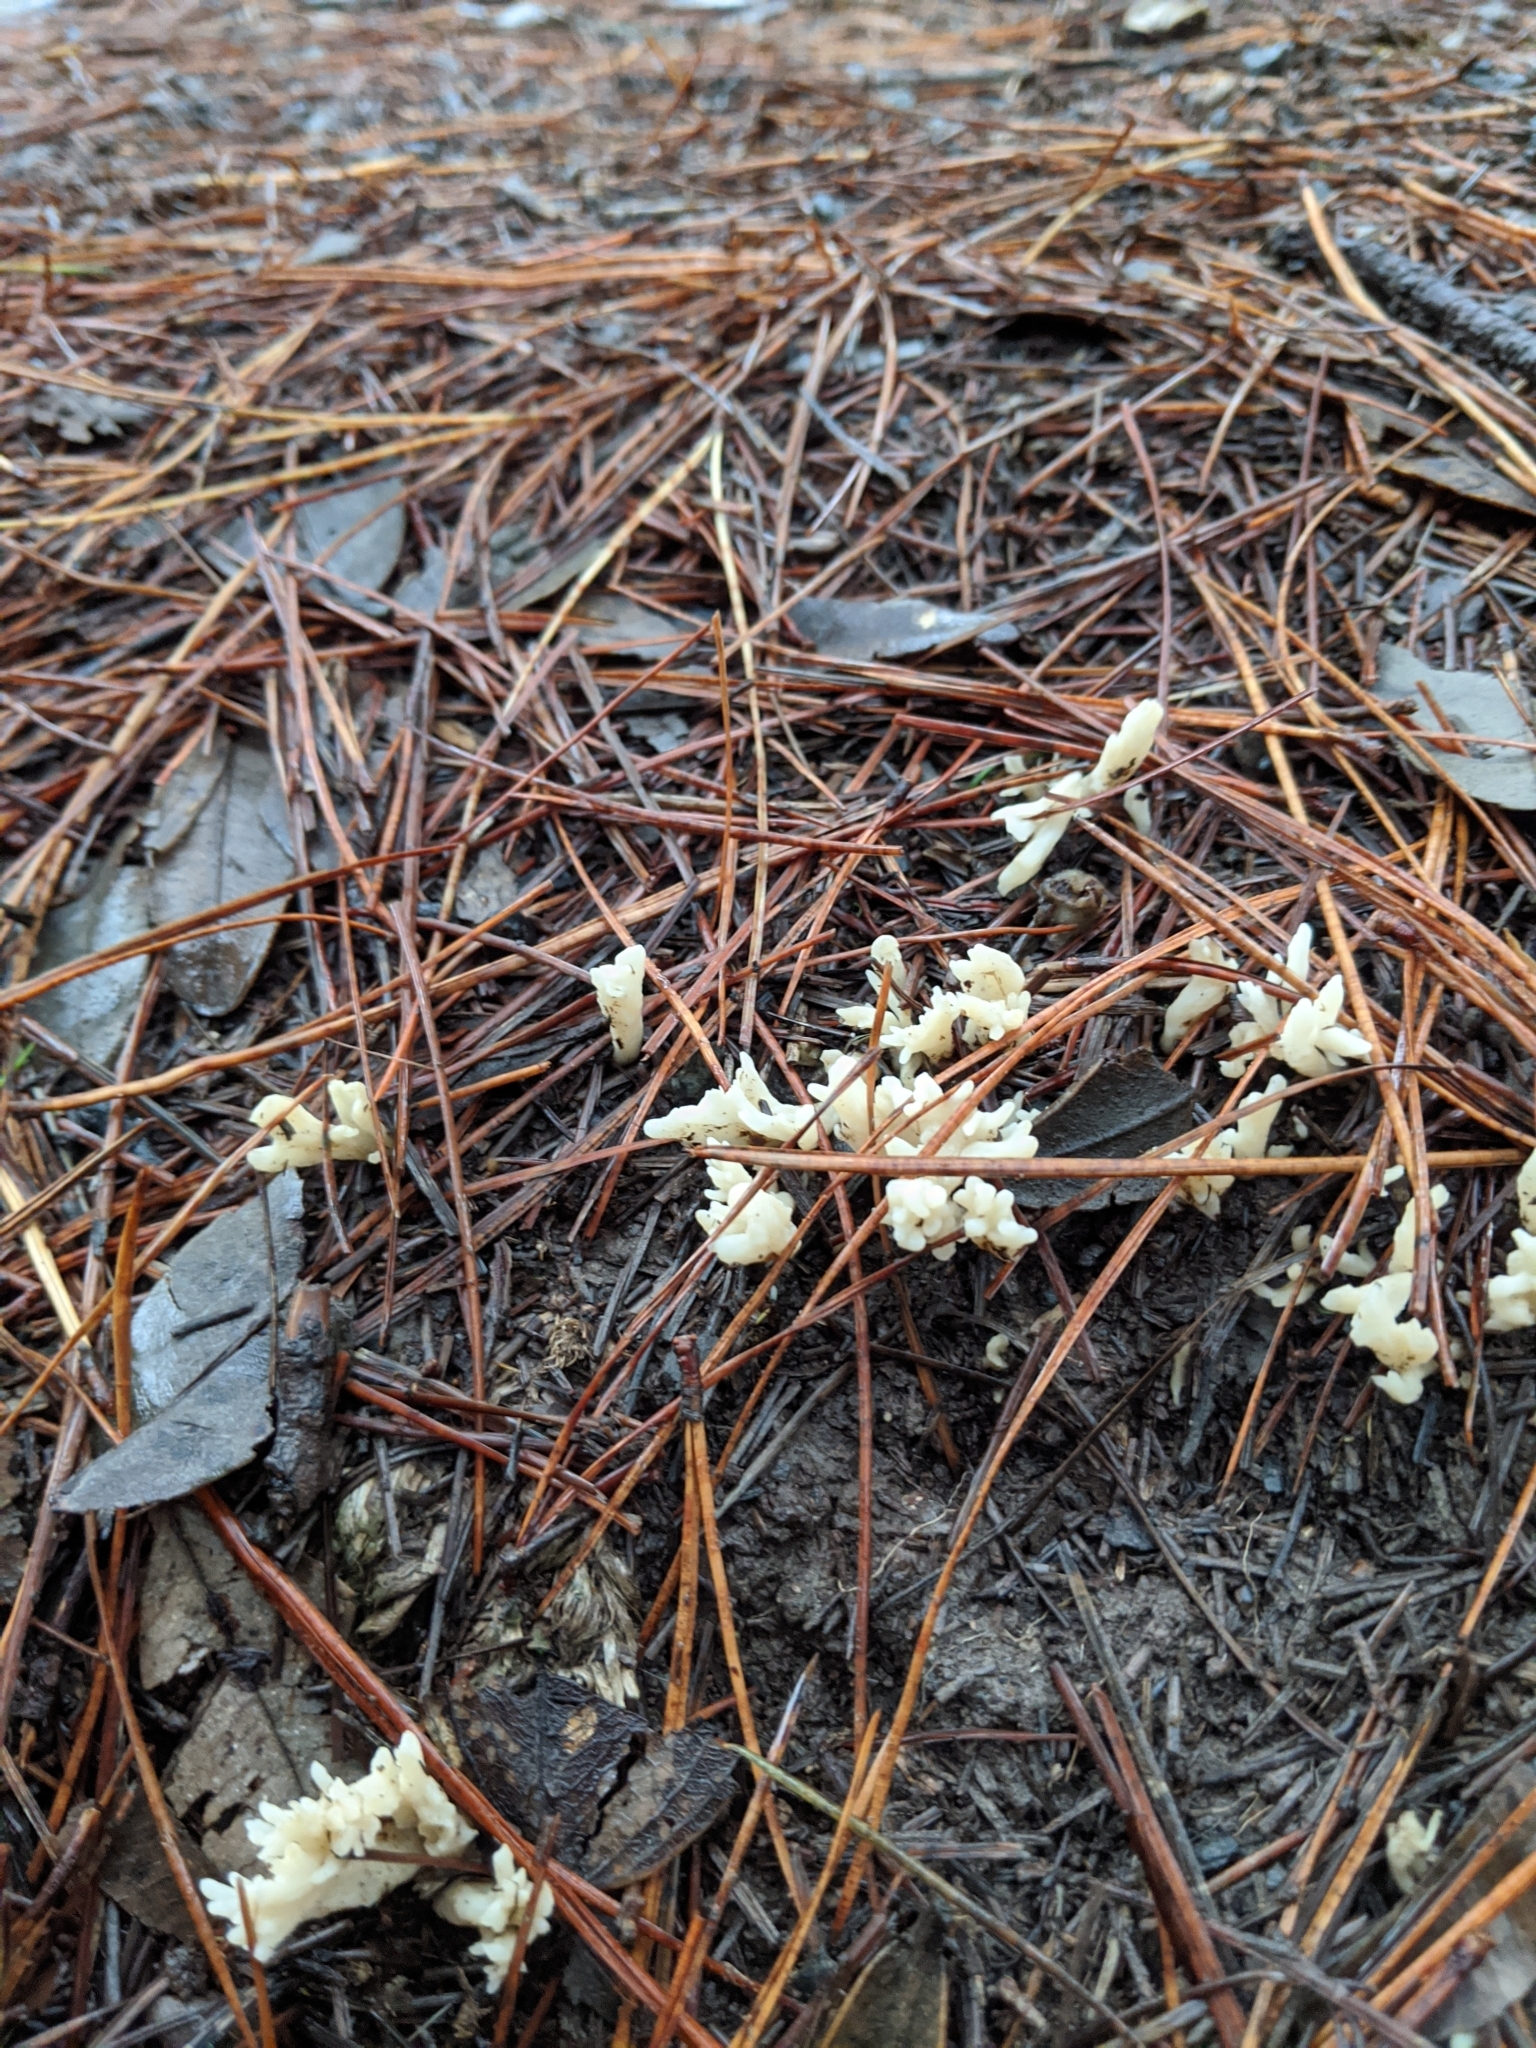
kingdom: Fungi
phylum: Basidiomycota
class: Agaricomycetes
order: Cantharellales
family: Hydnaceae
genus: Clavulina
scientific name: Clavulina rugosa
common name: Wrinkled club
